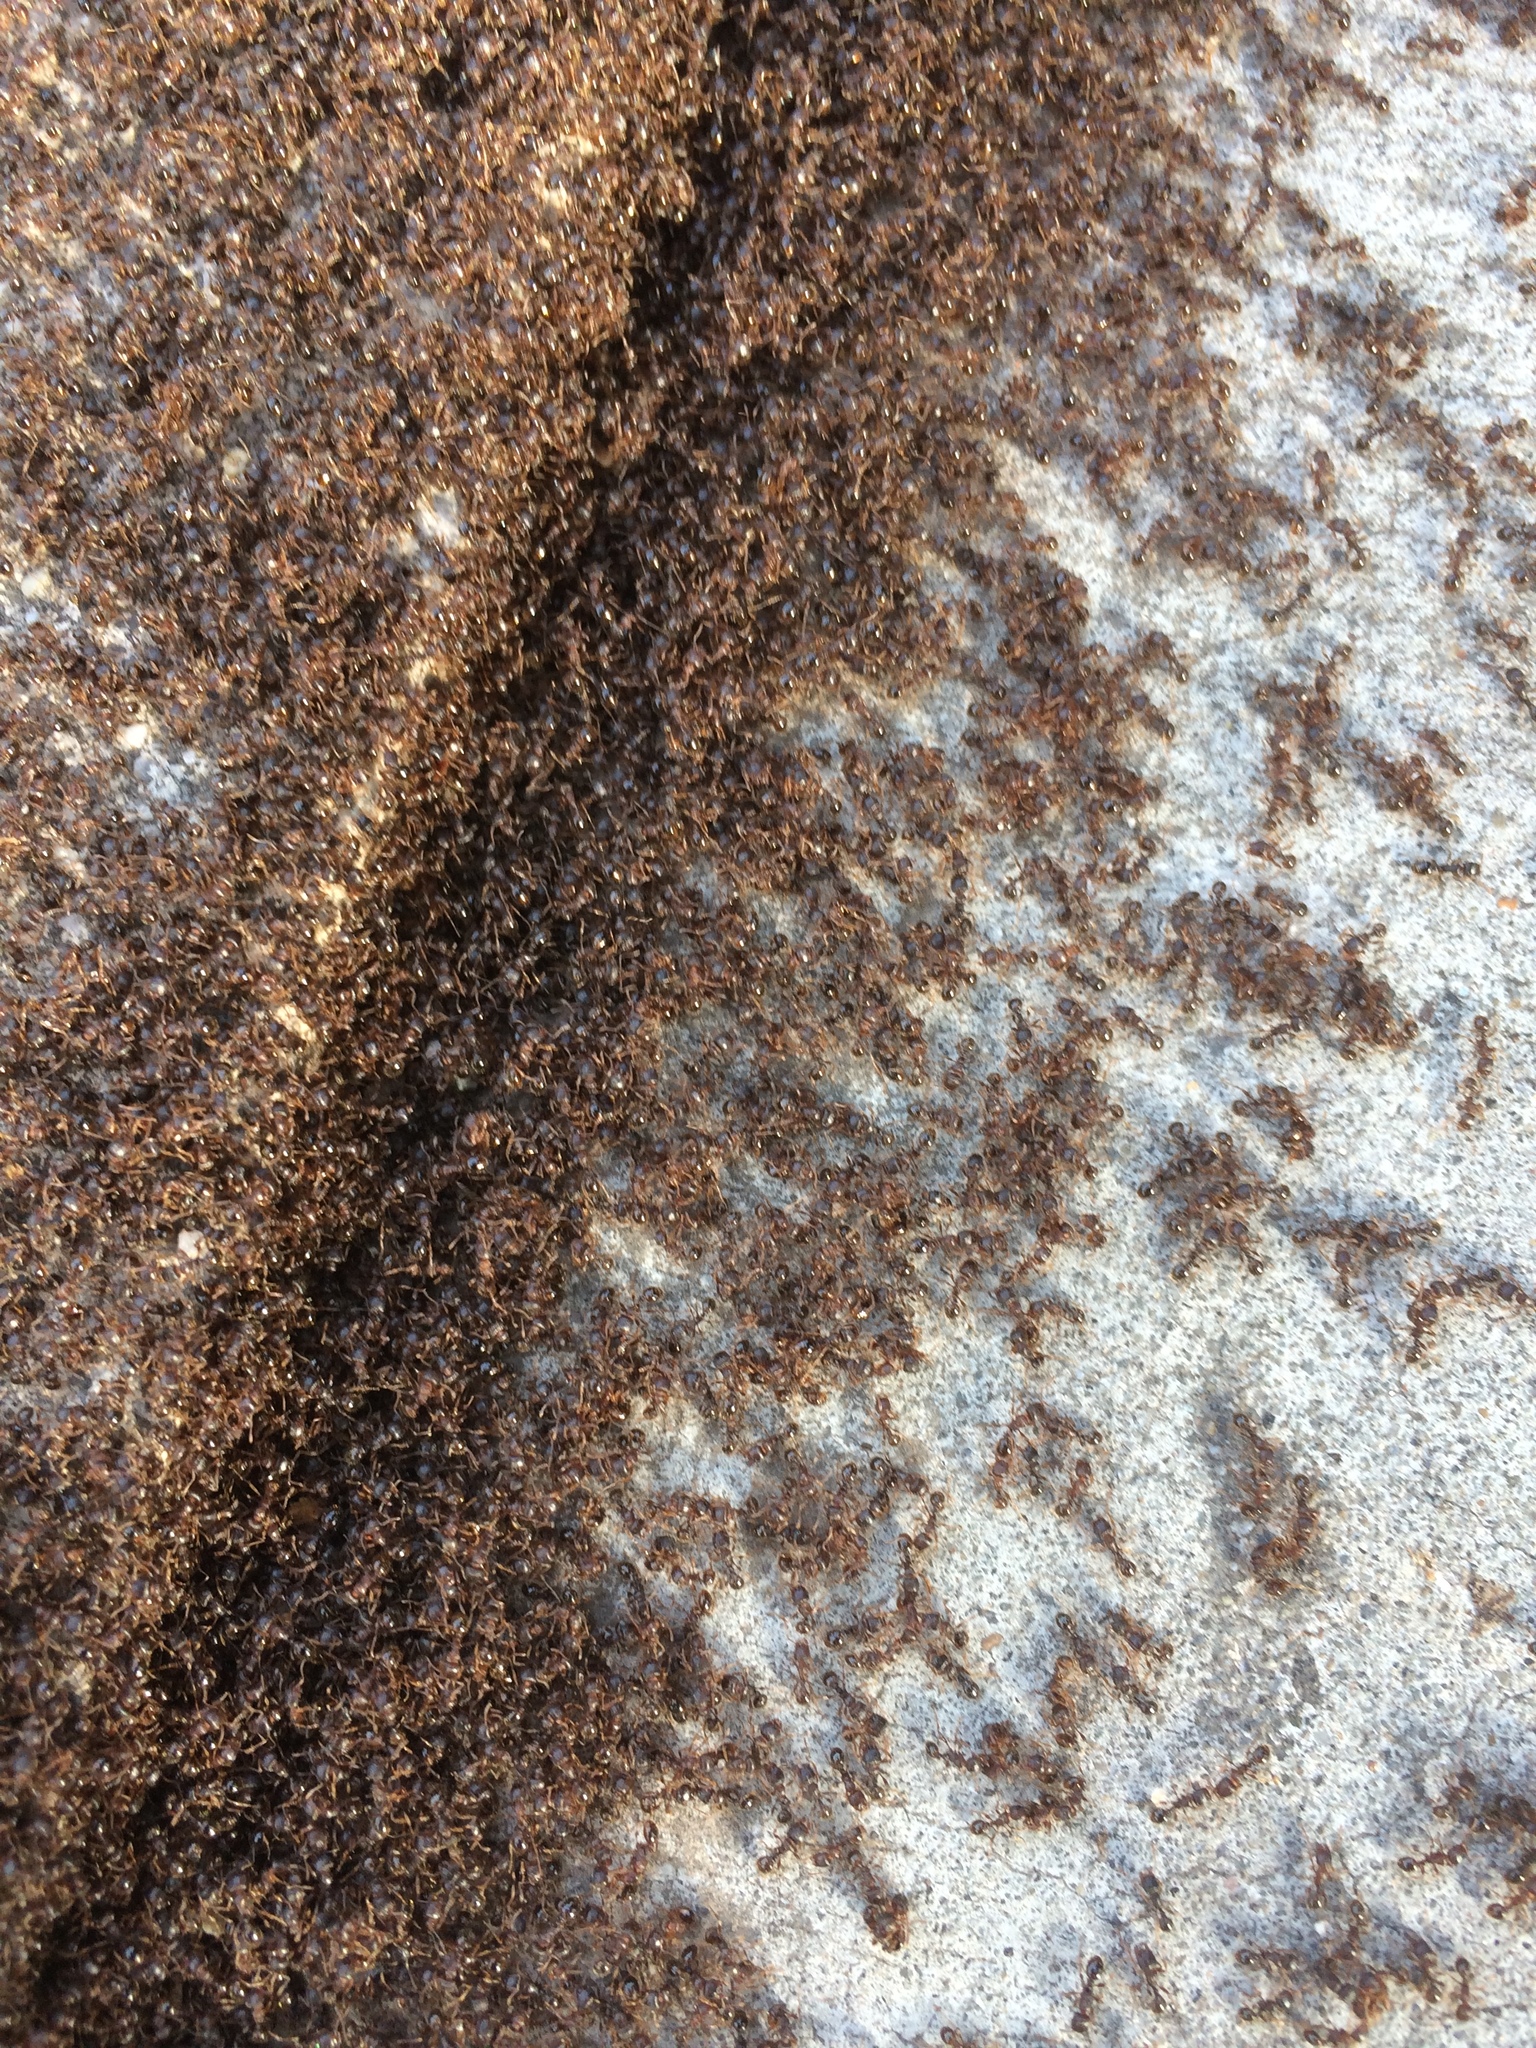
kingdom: Animalia
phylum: Arthropoda
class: Insecta
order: Hymenoptera
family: Formicidae
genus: Tetramorium
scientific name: Tetramorium immigrans
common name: Pavement ant
